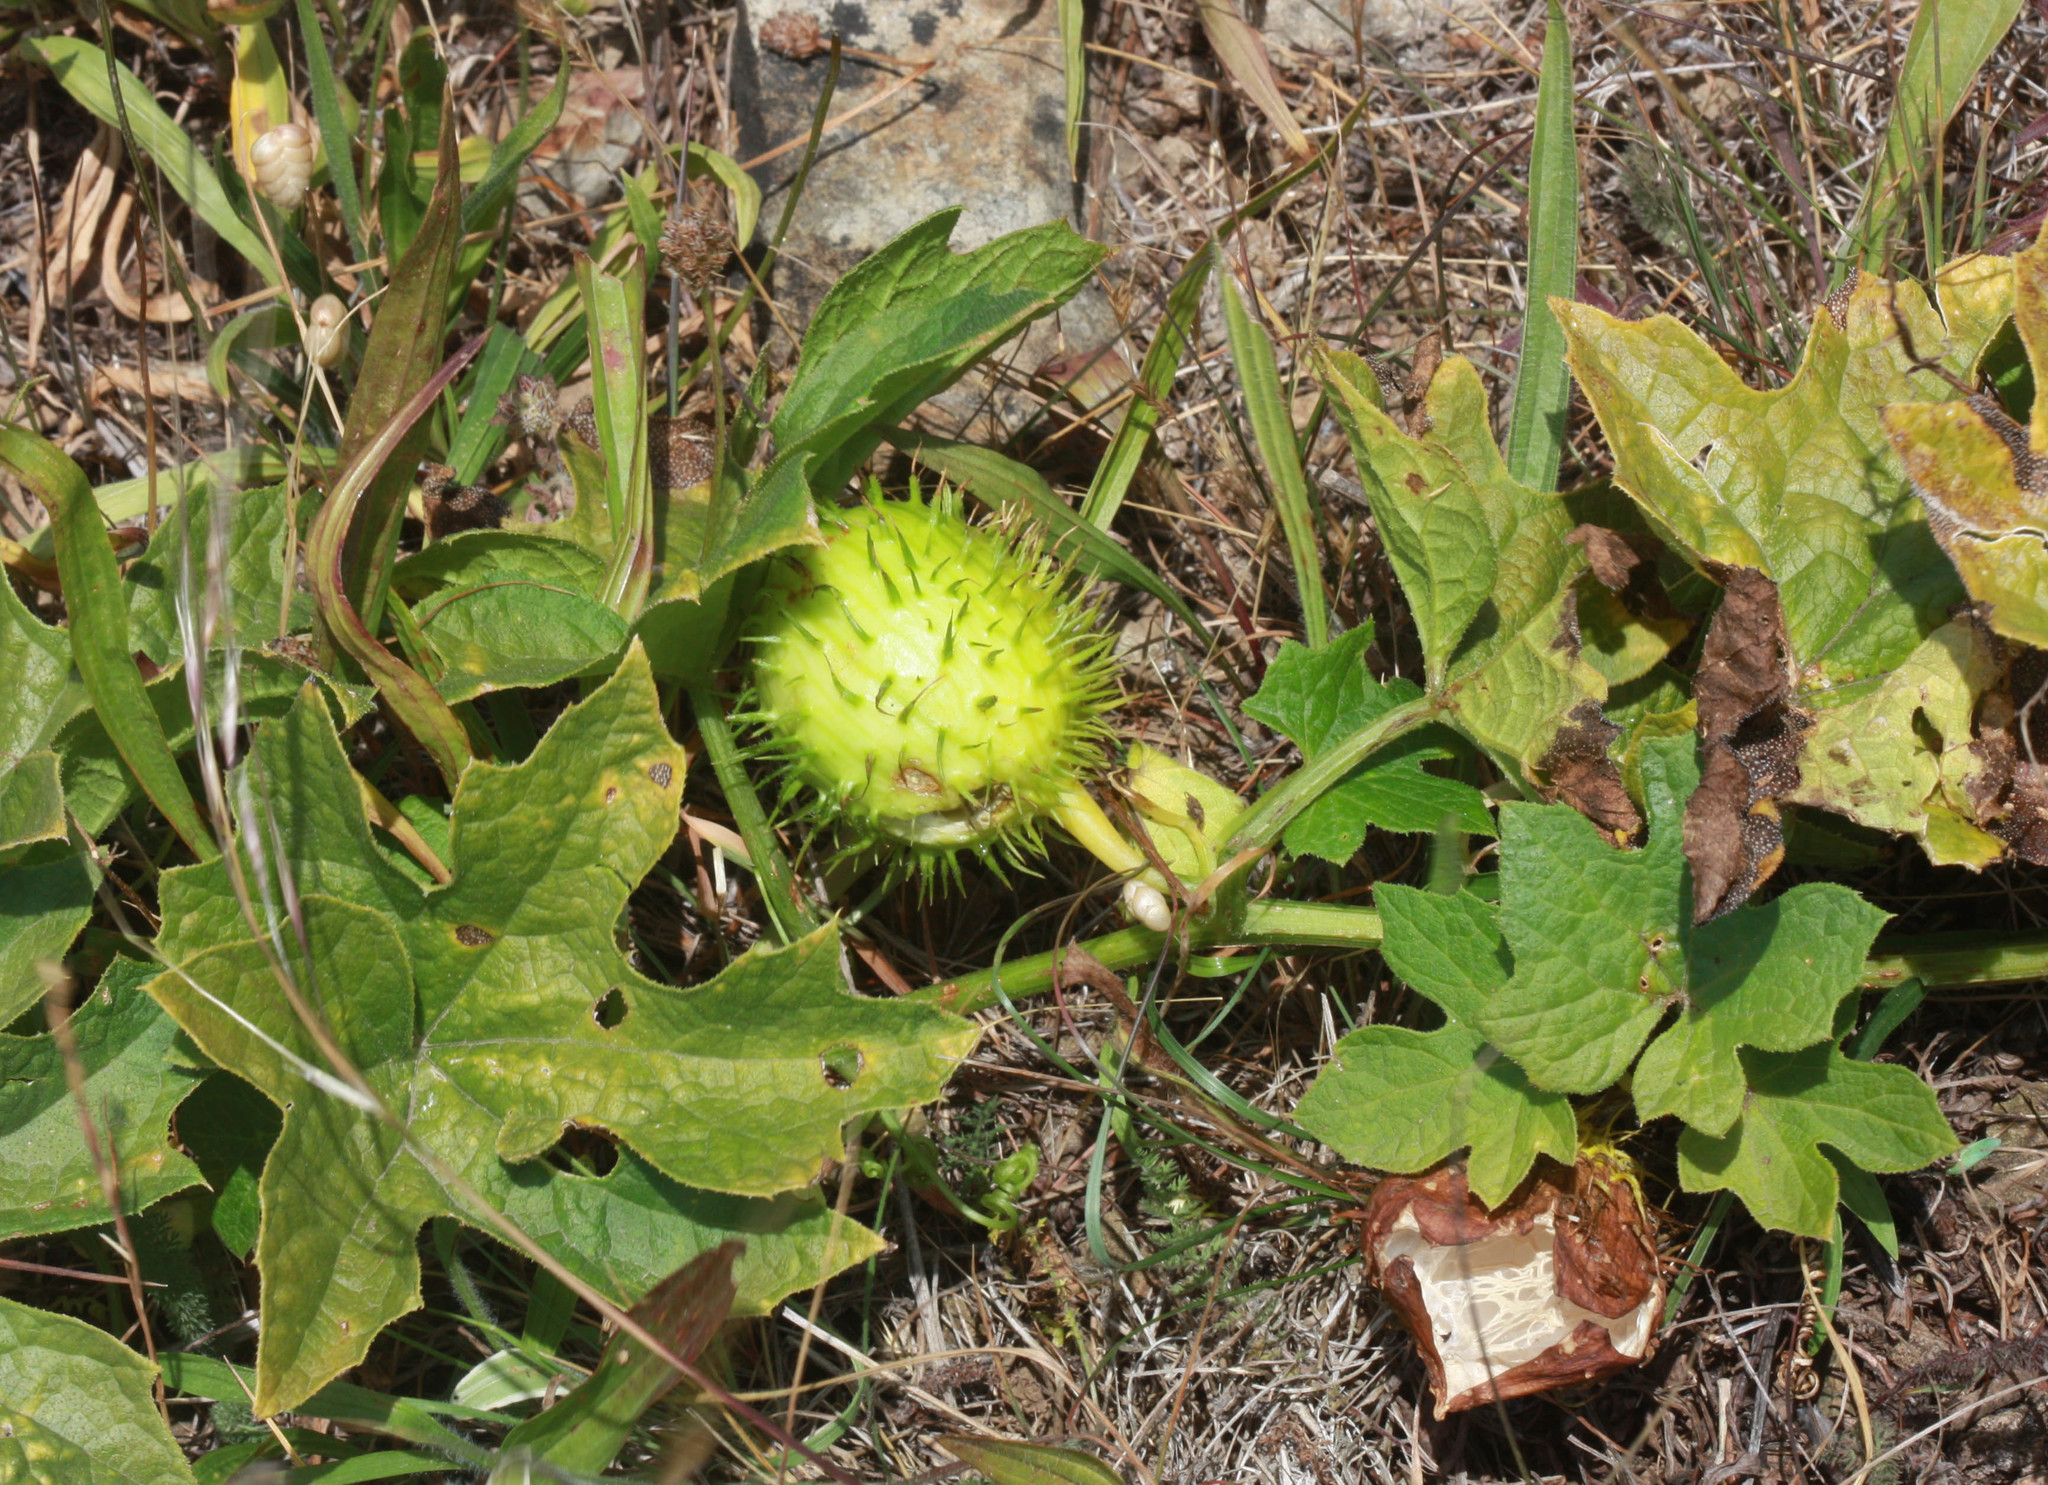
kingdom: Plantae
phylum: Tracheophyta
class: Magnoliopsida
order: Cucurbitales
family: Cucurbitaceae
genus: Marah
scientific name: Marah oregana
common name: Coastal manroot
